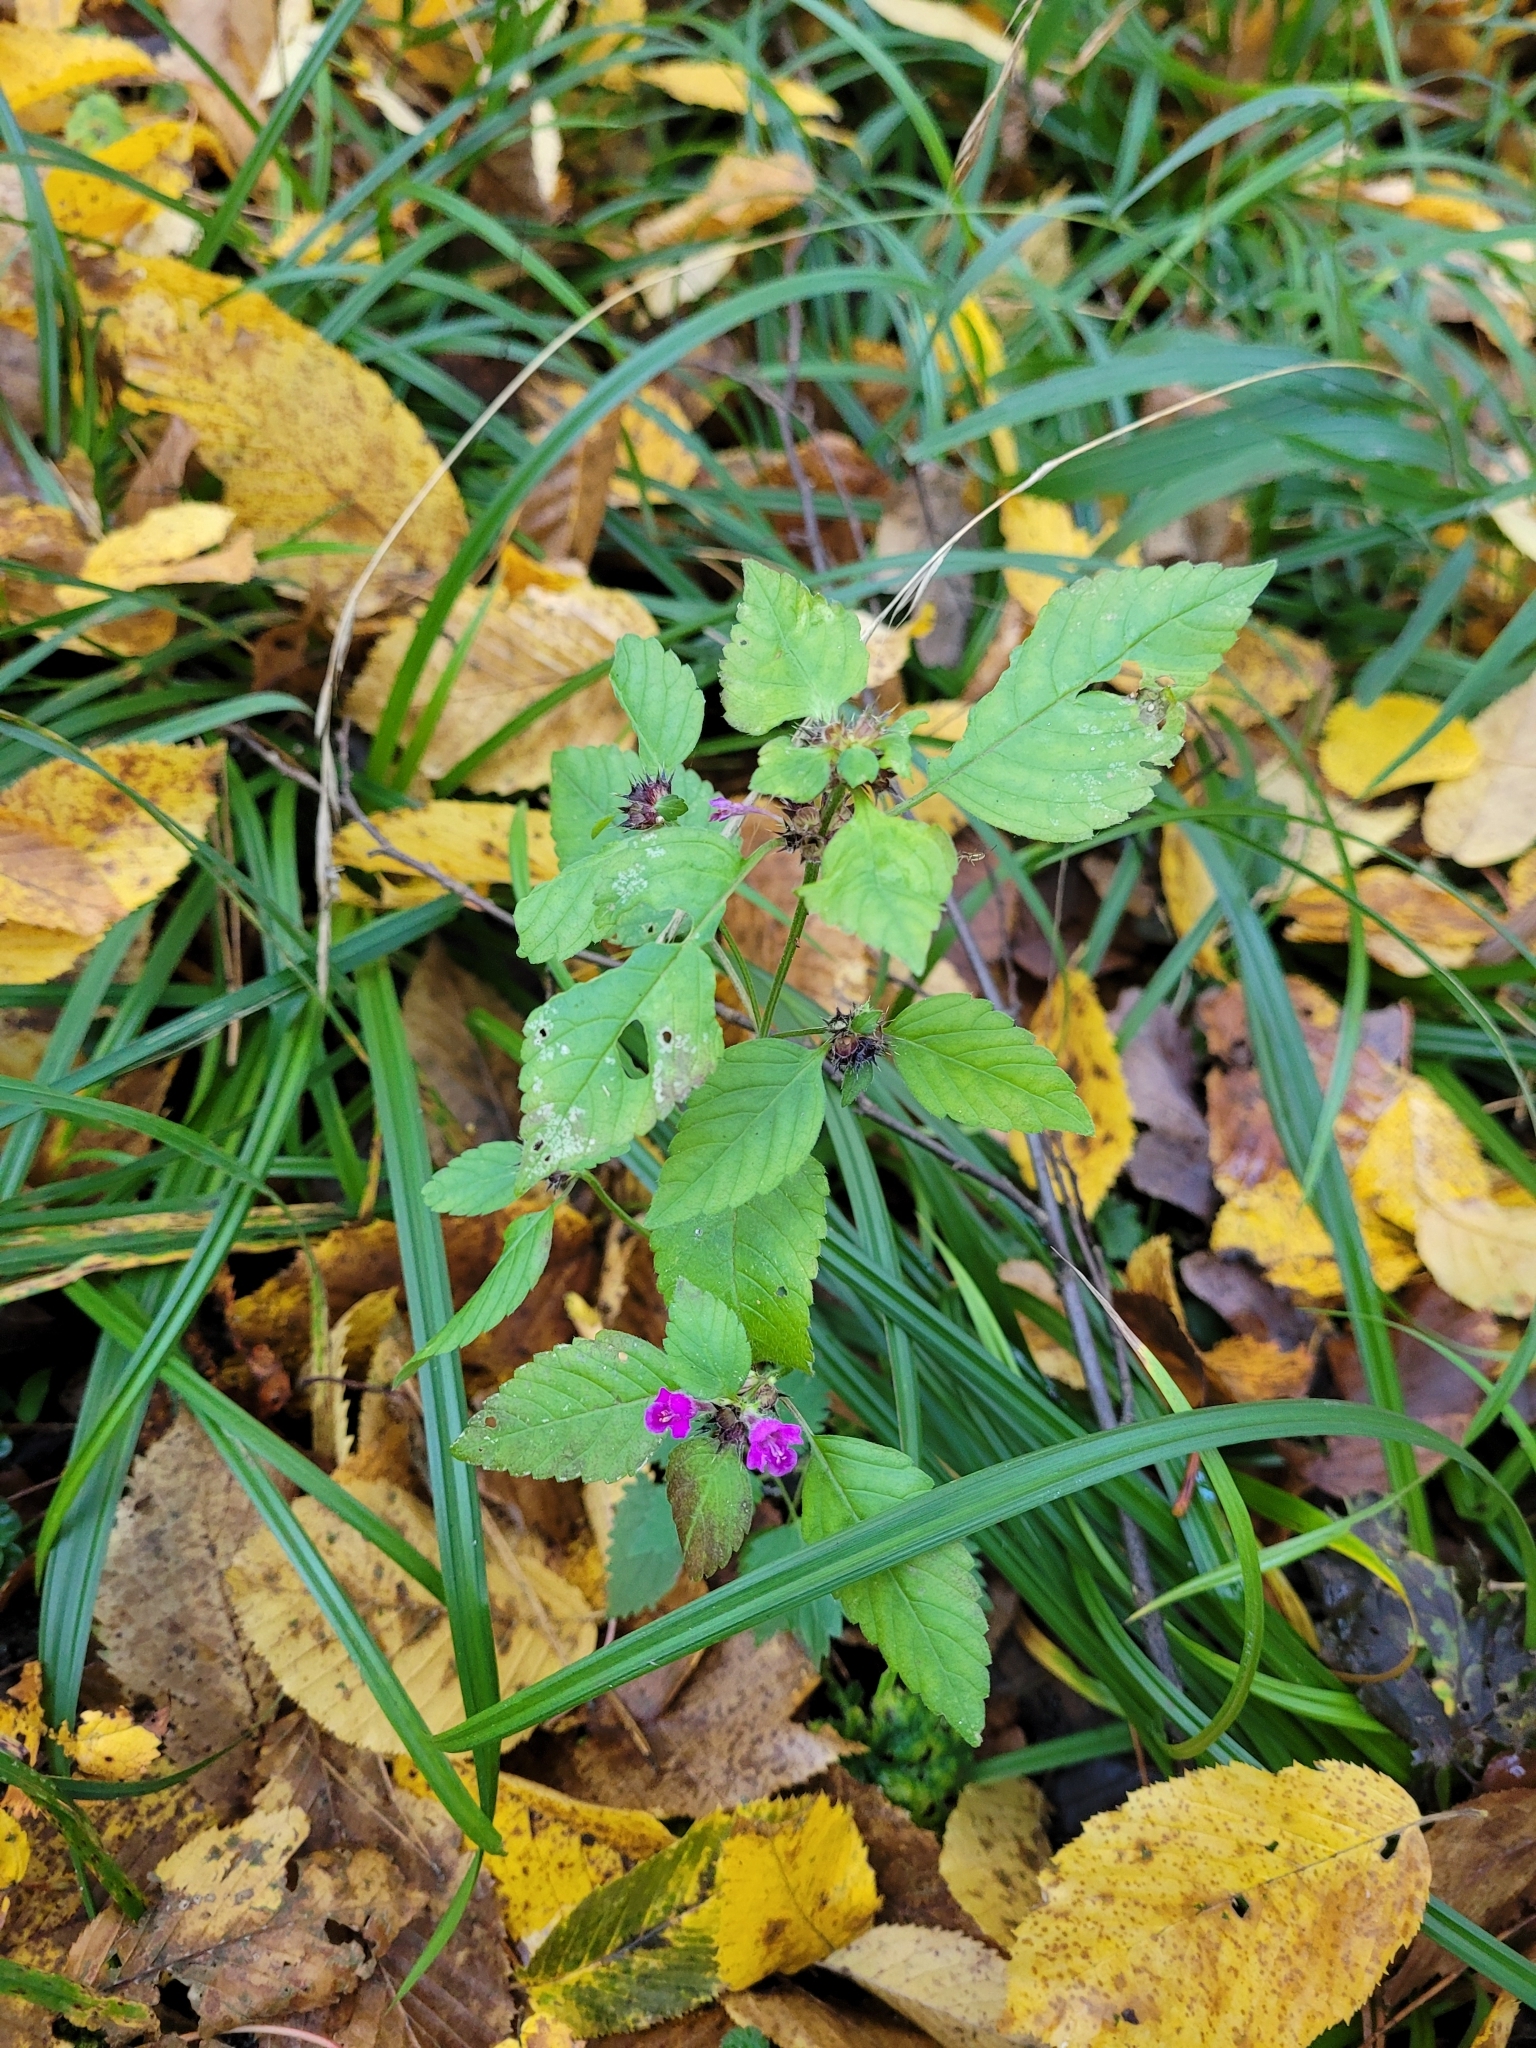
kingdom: Plantae
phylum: Tracheophyta
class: Magnoliopsida
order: Lamiales
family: Lamiaceae
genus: Galeopsis
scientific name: Galeopsis pubescens
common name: Downy hemp-nettle
